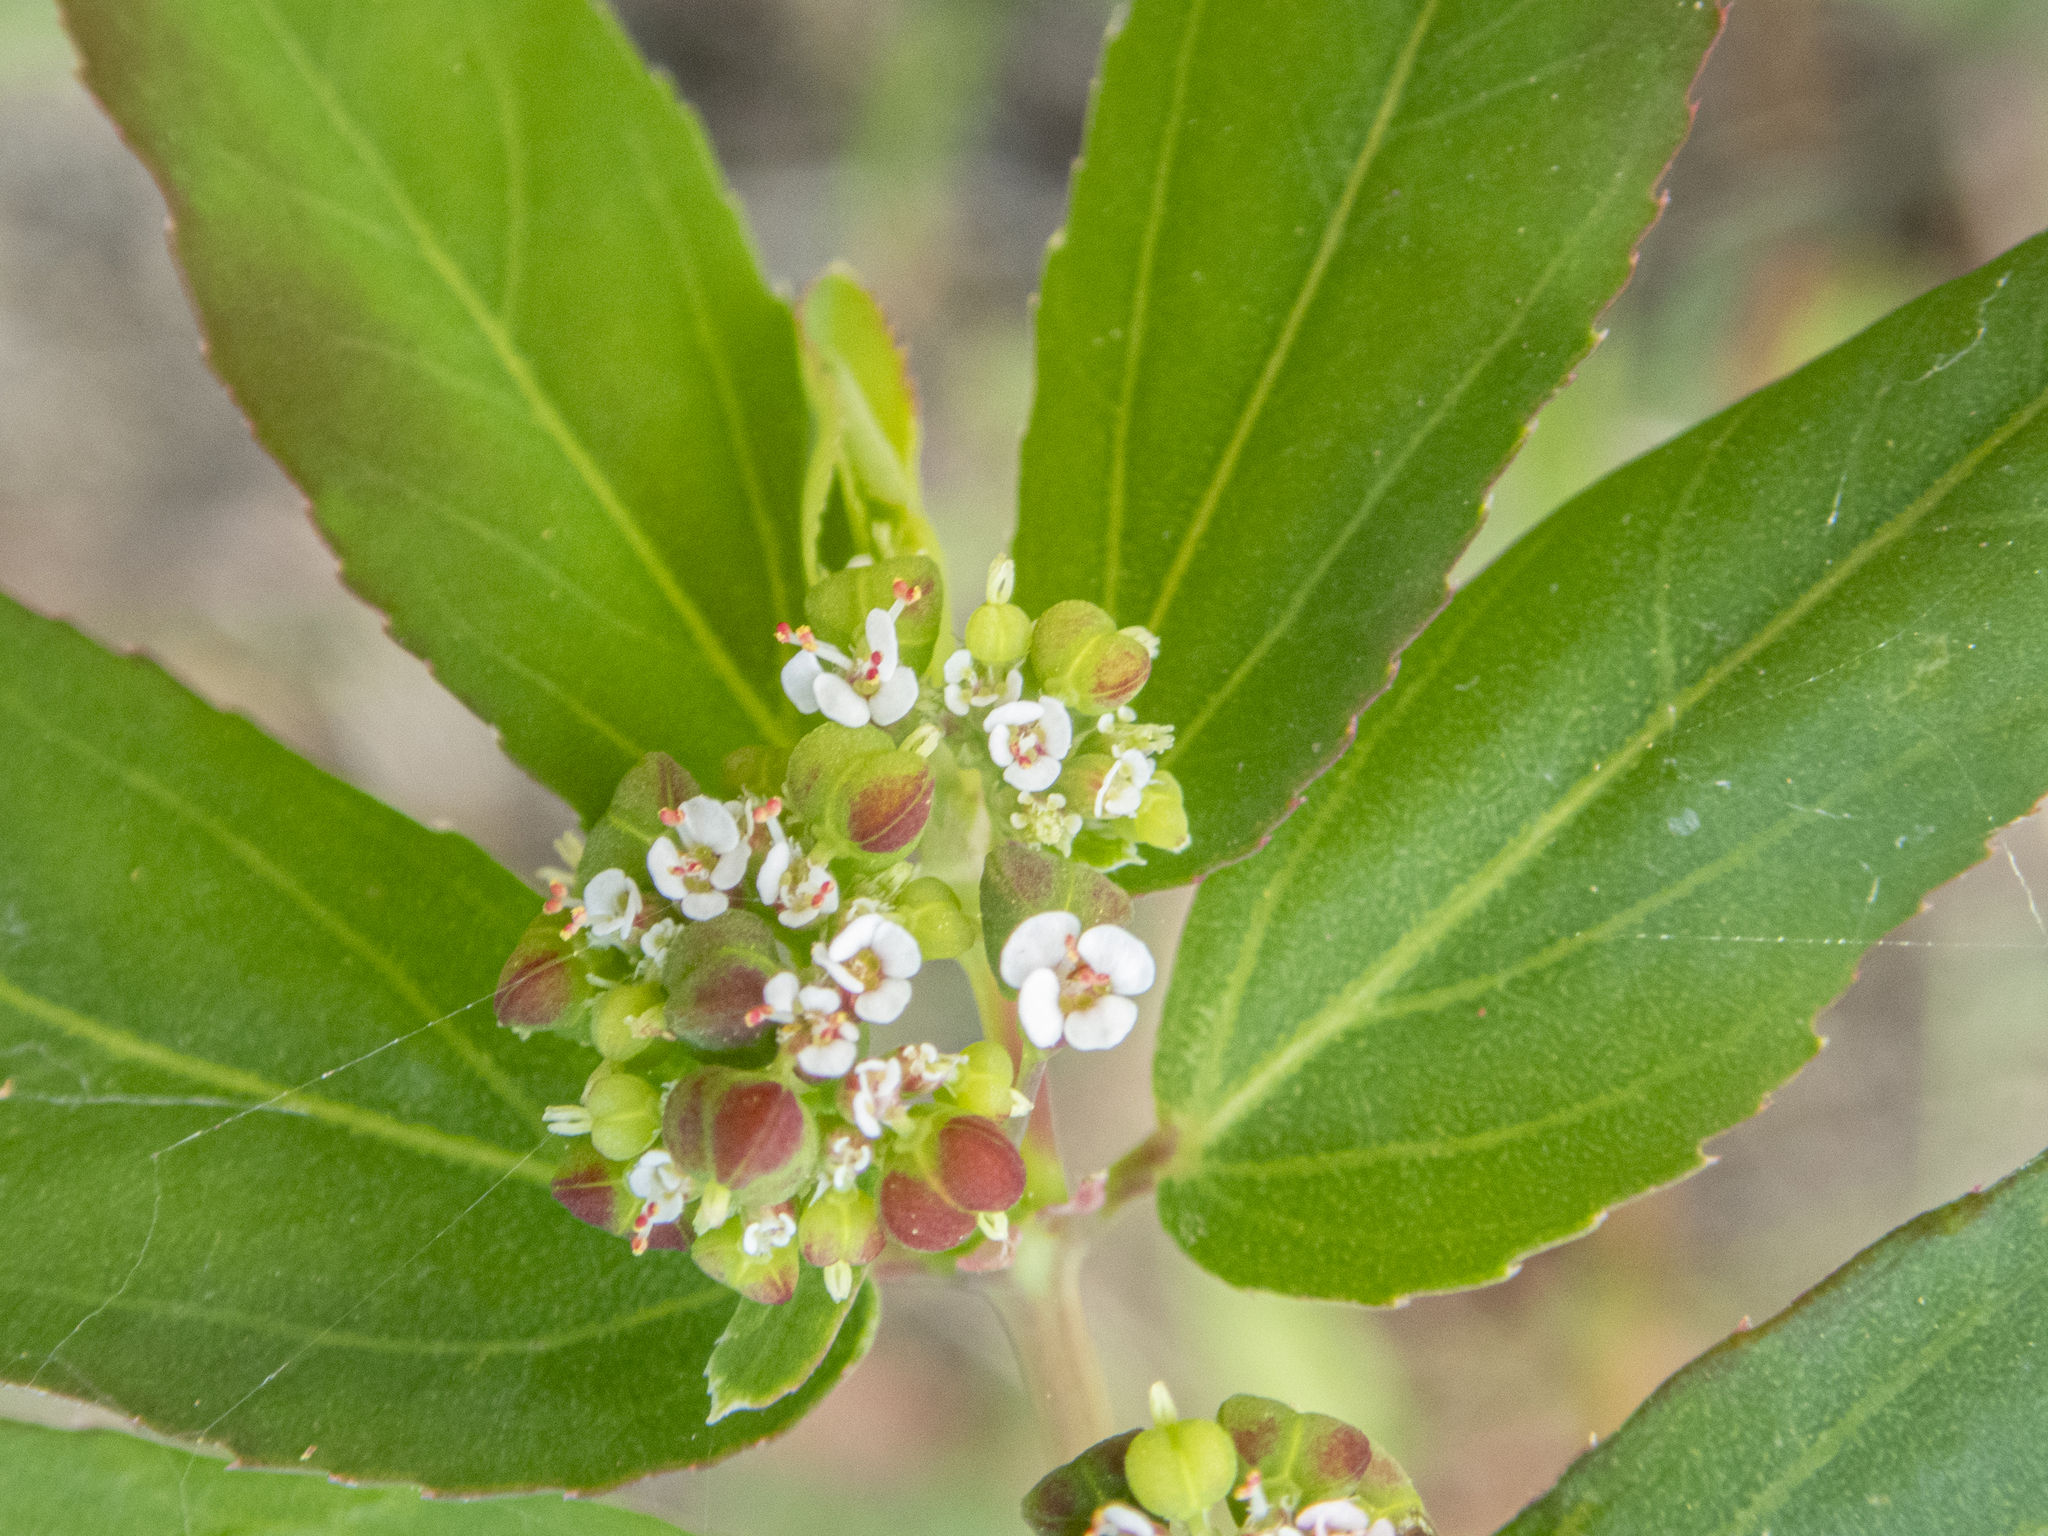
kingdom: Plantae
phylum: Tracheophyta
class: Magnoliopsida
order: Malpighiales
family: Euphorbiaceae
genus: Euphorbia
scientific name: Euphorbia hypericifolia
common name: Graceful sandmat
